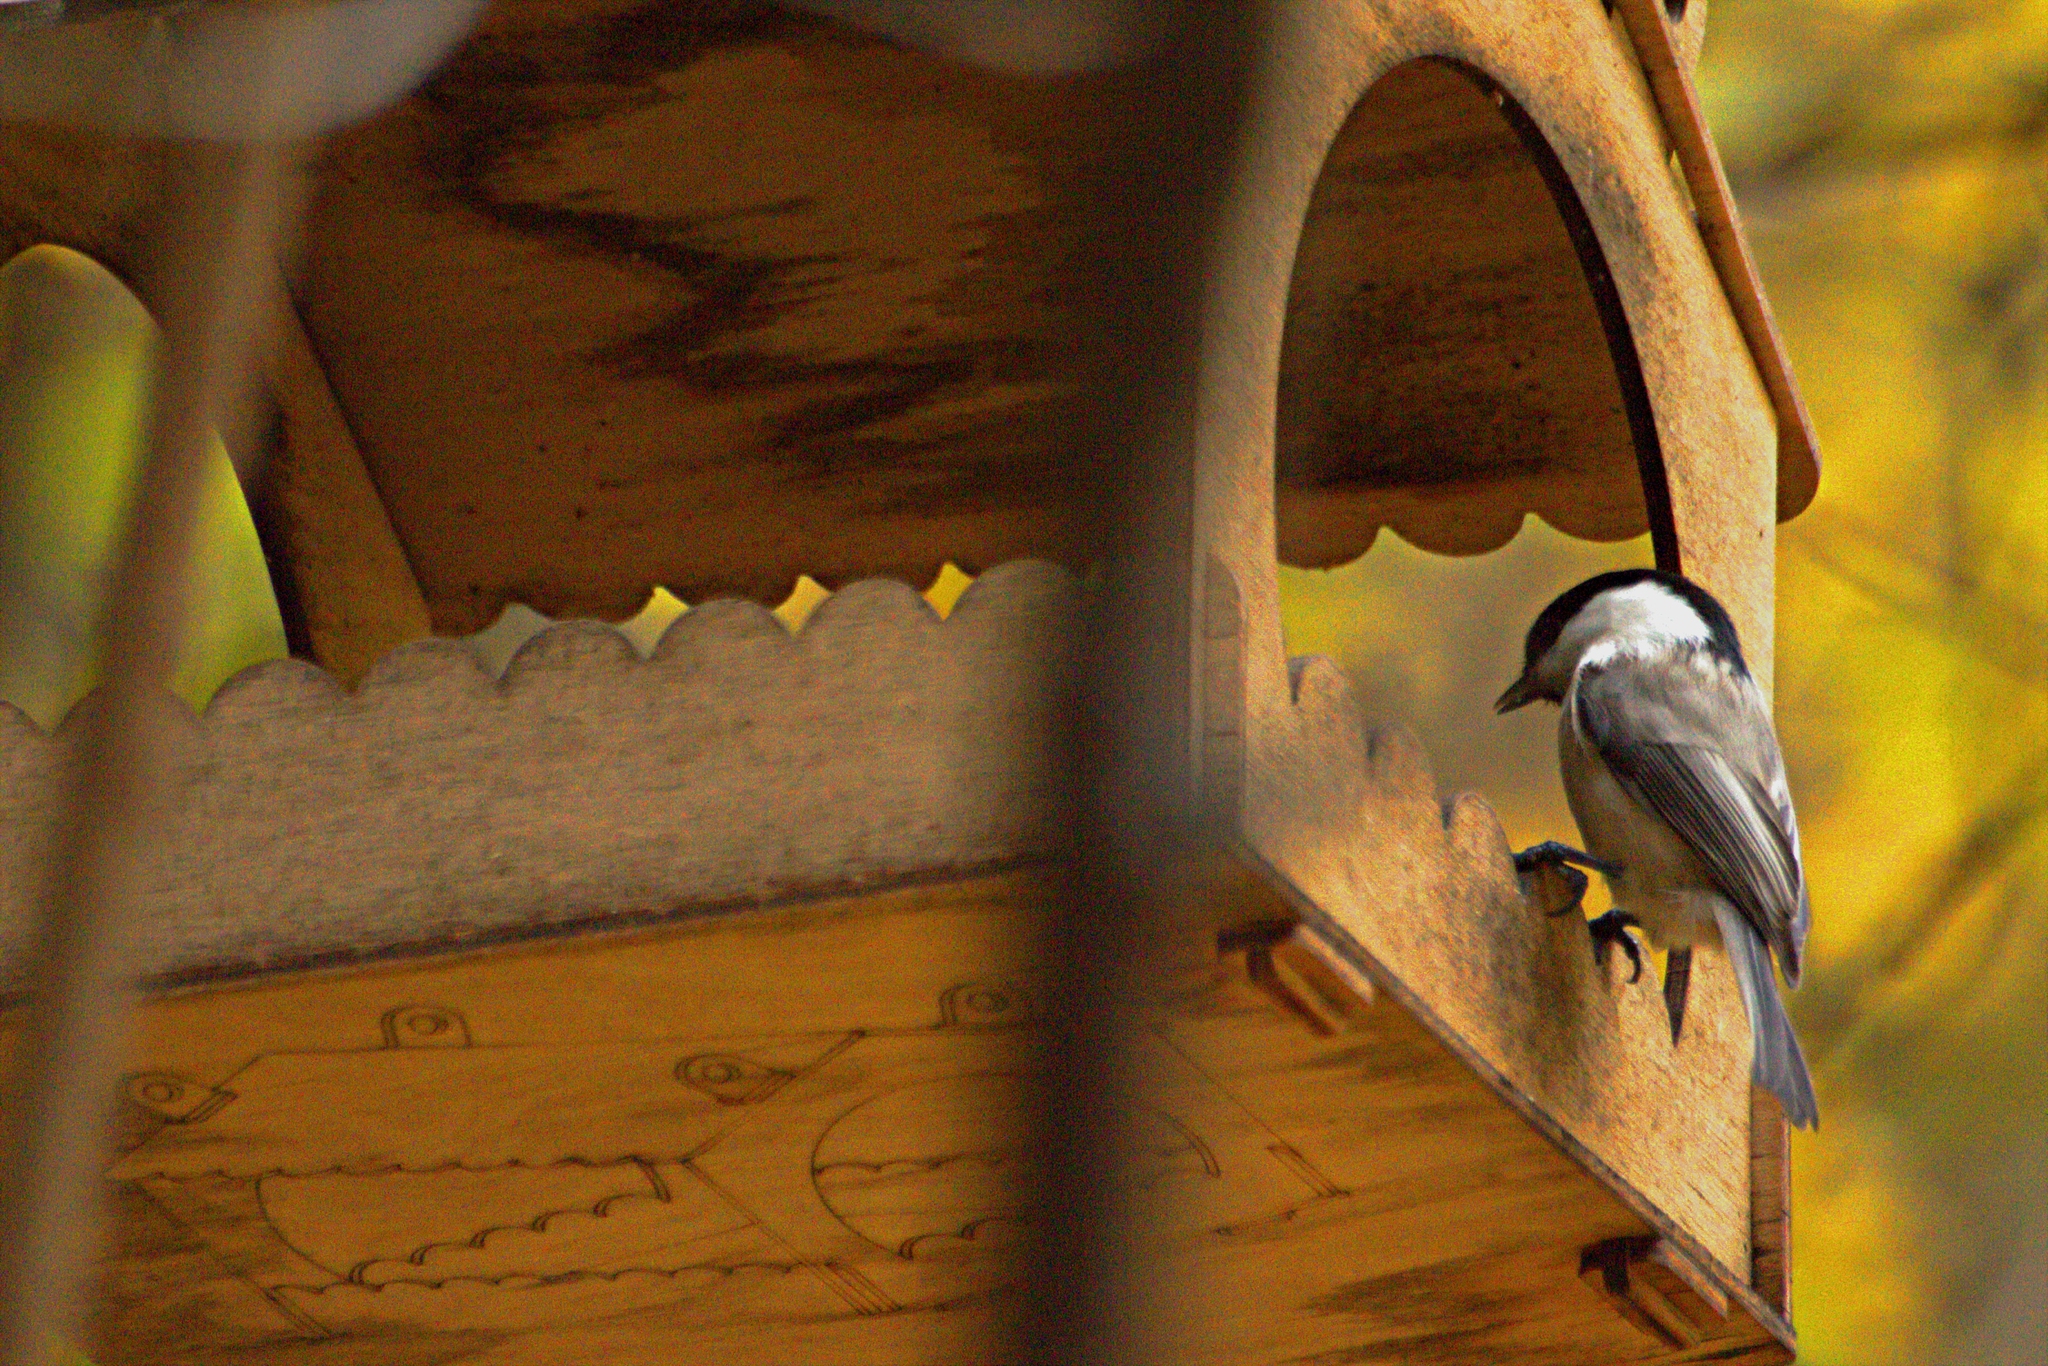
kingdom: Animalia
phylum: Chordata
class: Aves
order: Passeriformes
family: Paridae
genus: Poecile
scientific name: Poecile montanus
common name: Willow tit
